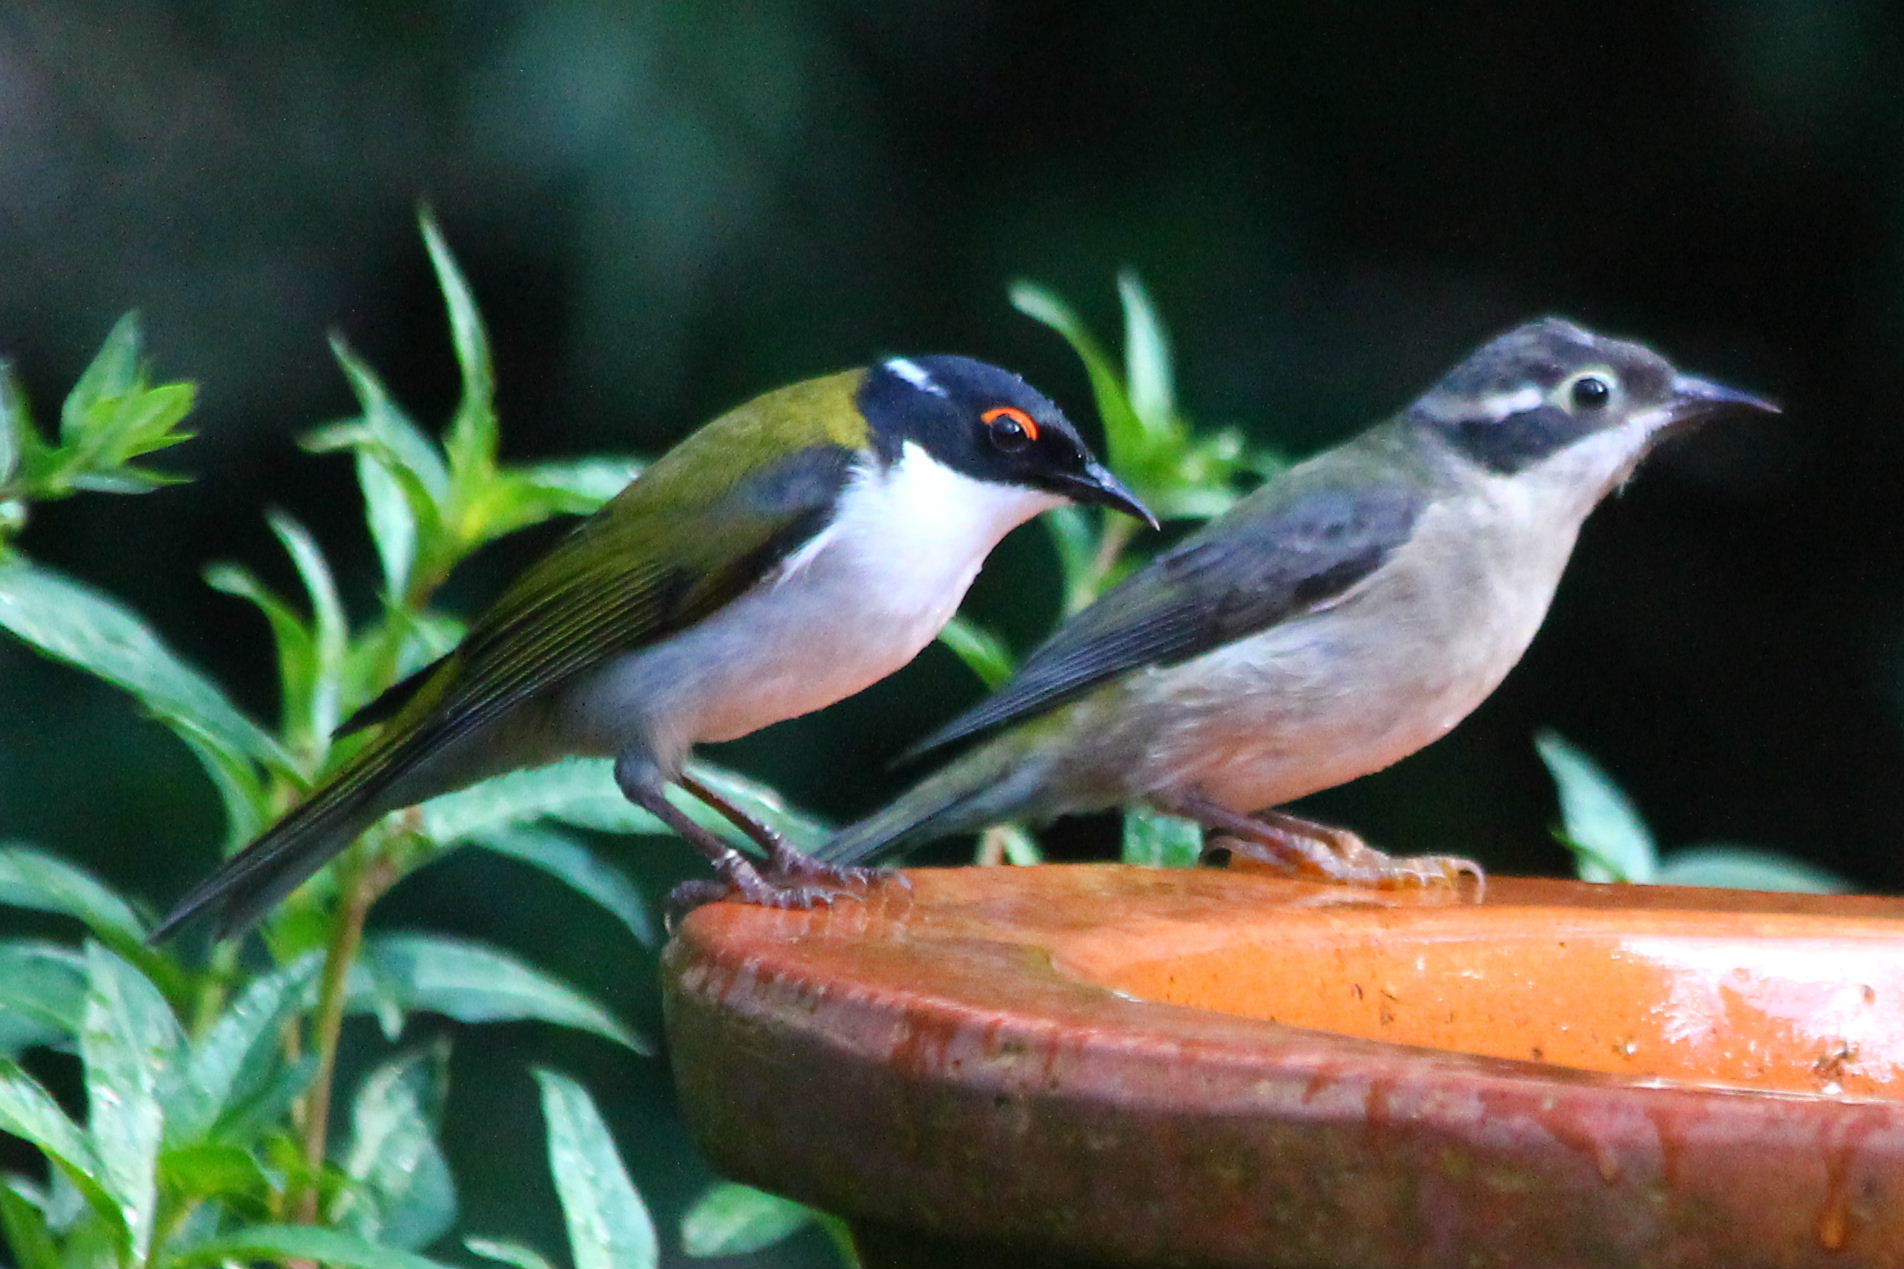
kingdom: Animalia
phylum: Chordata
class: Aves
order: Passeriformes
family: Meliphagidae
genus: Melithreptus
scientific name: Melithreptus lunatus
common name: White-naped honeyeater
